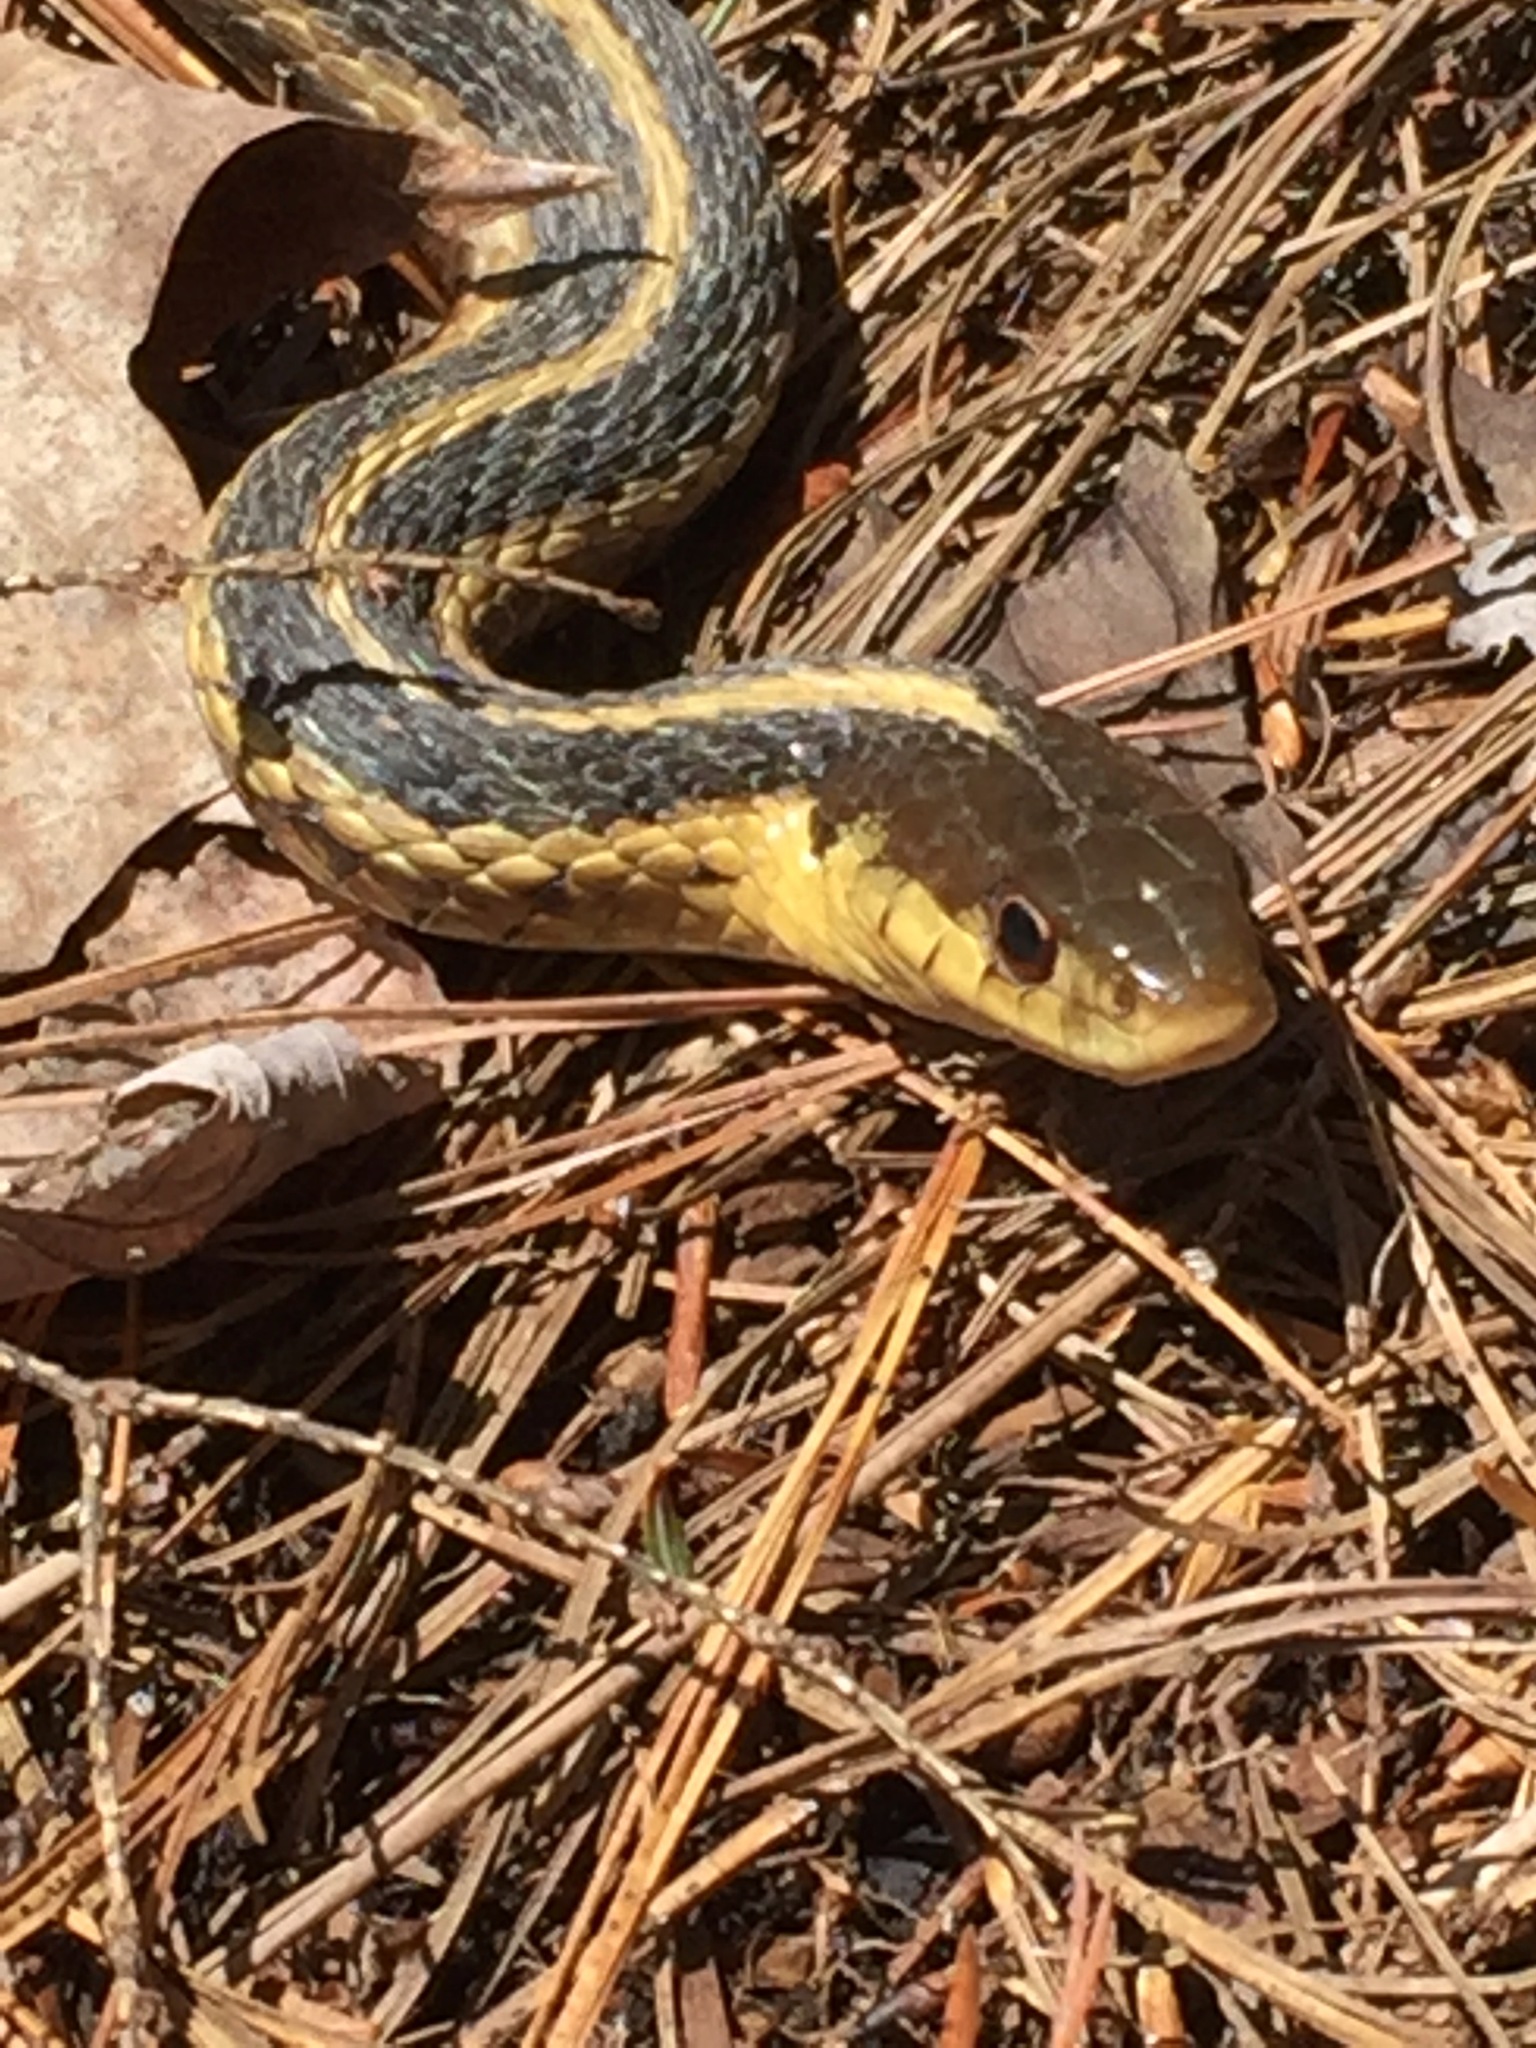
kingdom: Animalia
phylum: Chordata
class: Squamata
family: Colubridae
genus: Thamnophis
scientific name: Thamnophis sirtalis
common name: Common garter snake
